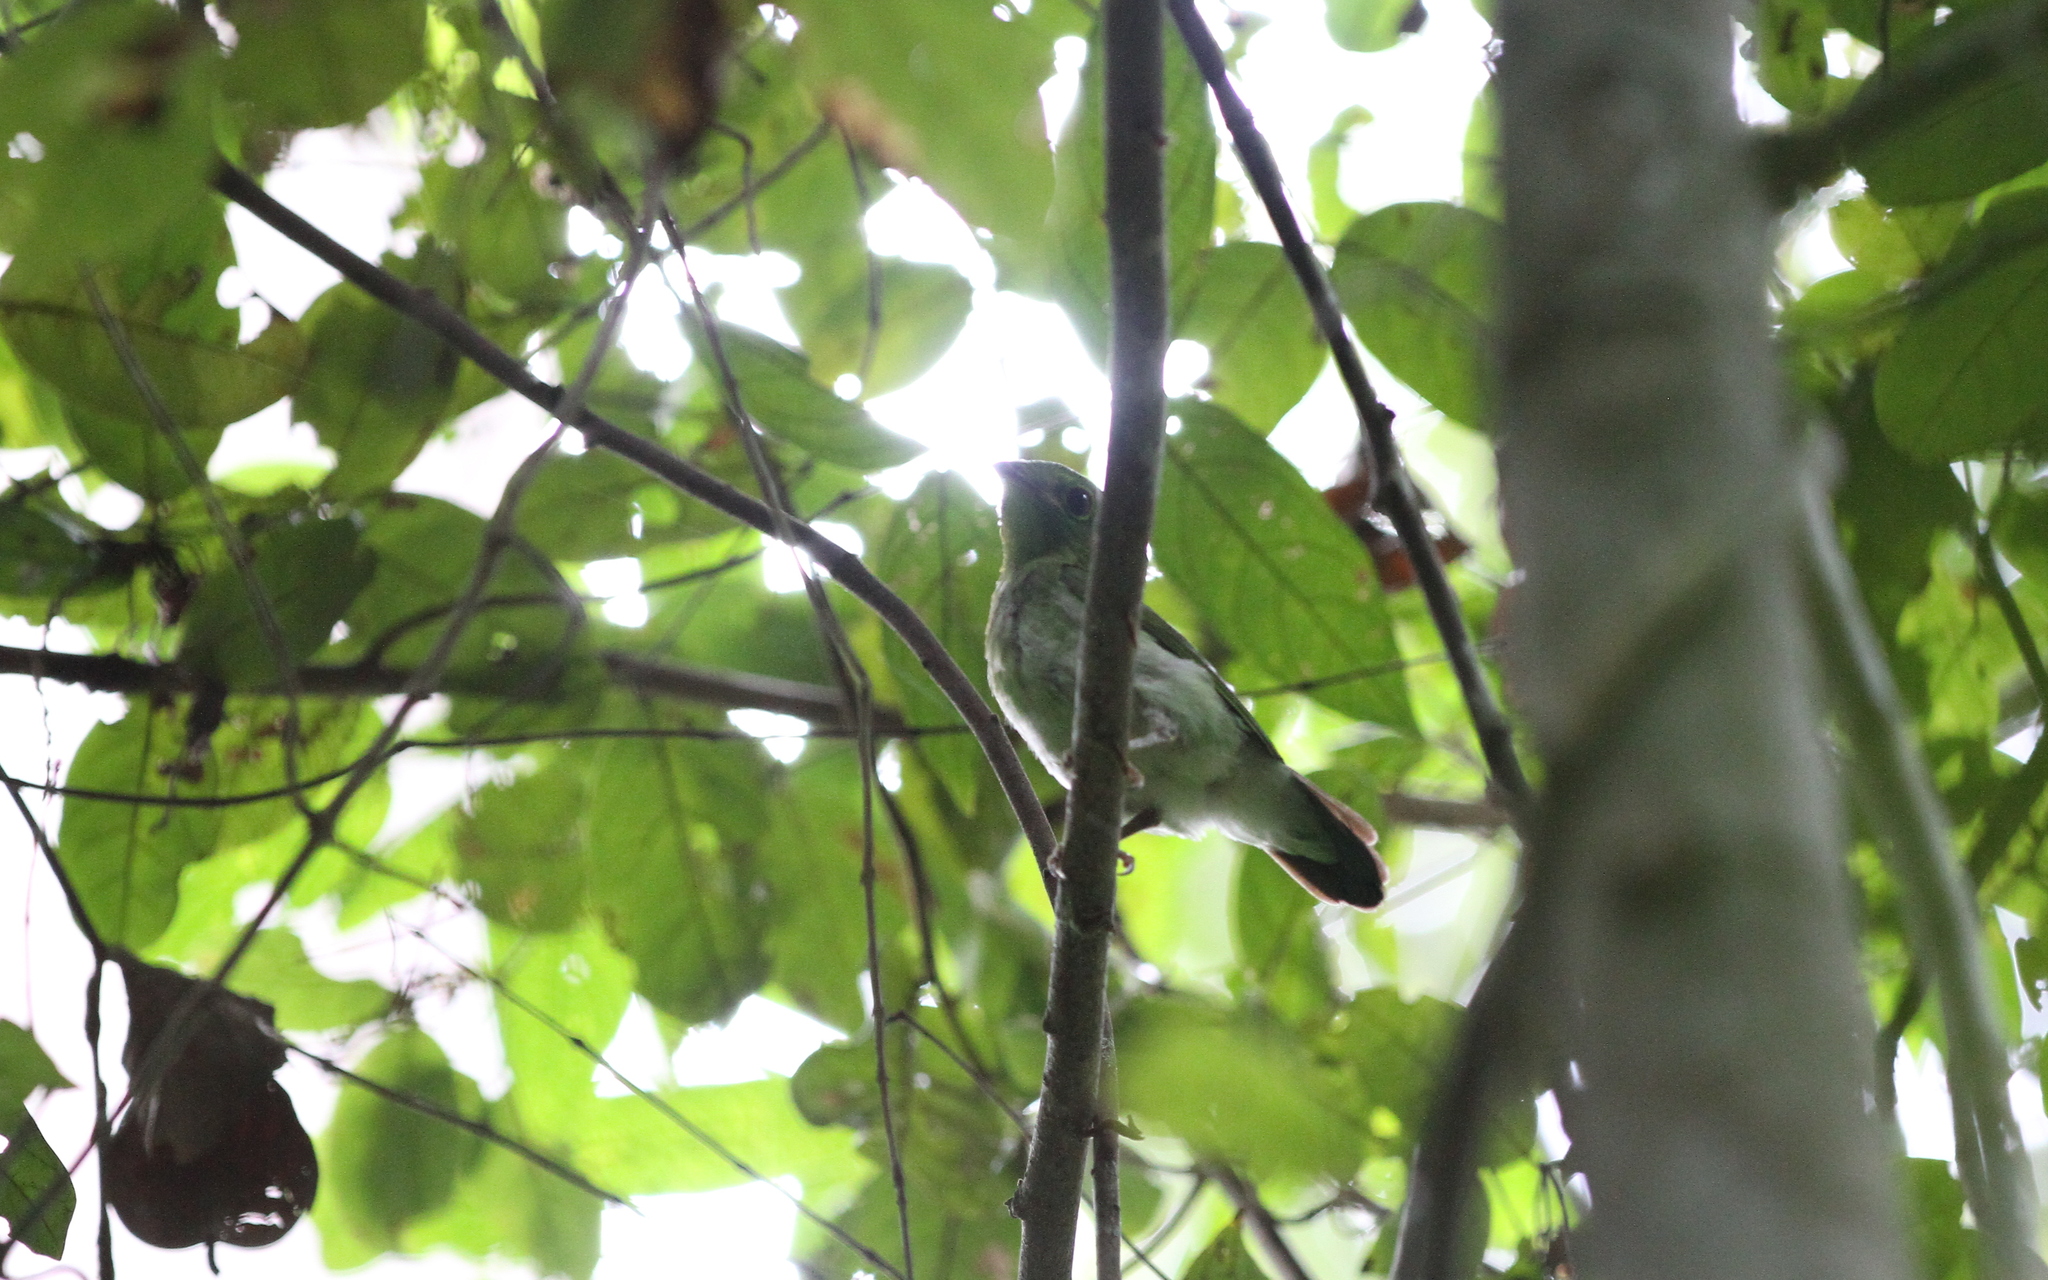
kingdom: Animalia
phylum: Chordata
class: Aves
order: Passeriformes
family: Eurylaimidae
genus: Calyptomena
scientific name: Calyptomena viridis
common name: Green broadbill
